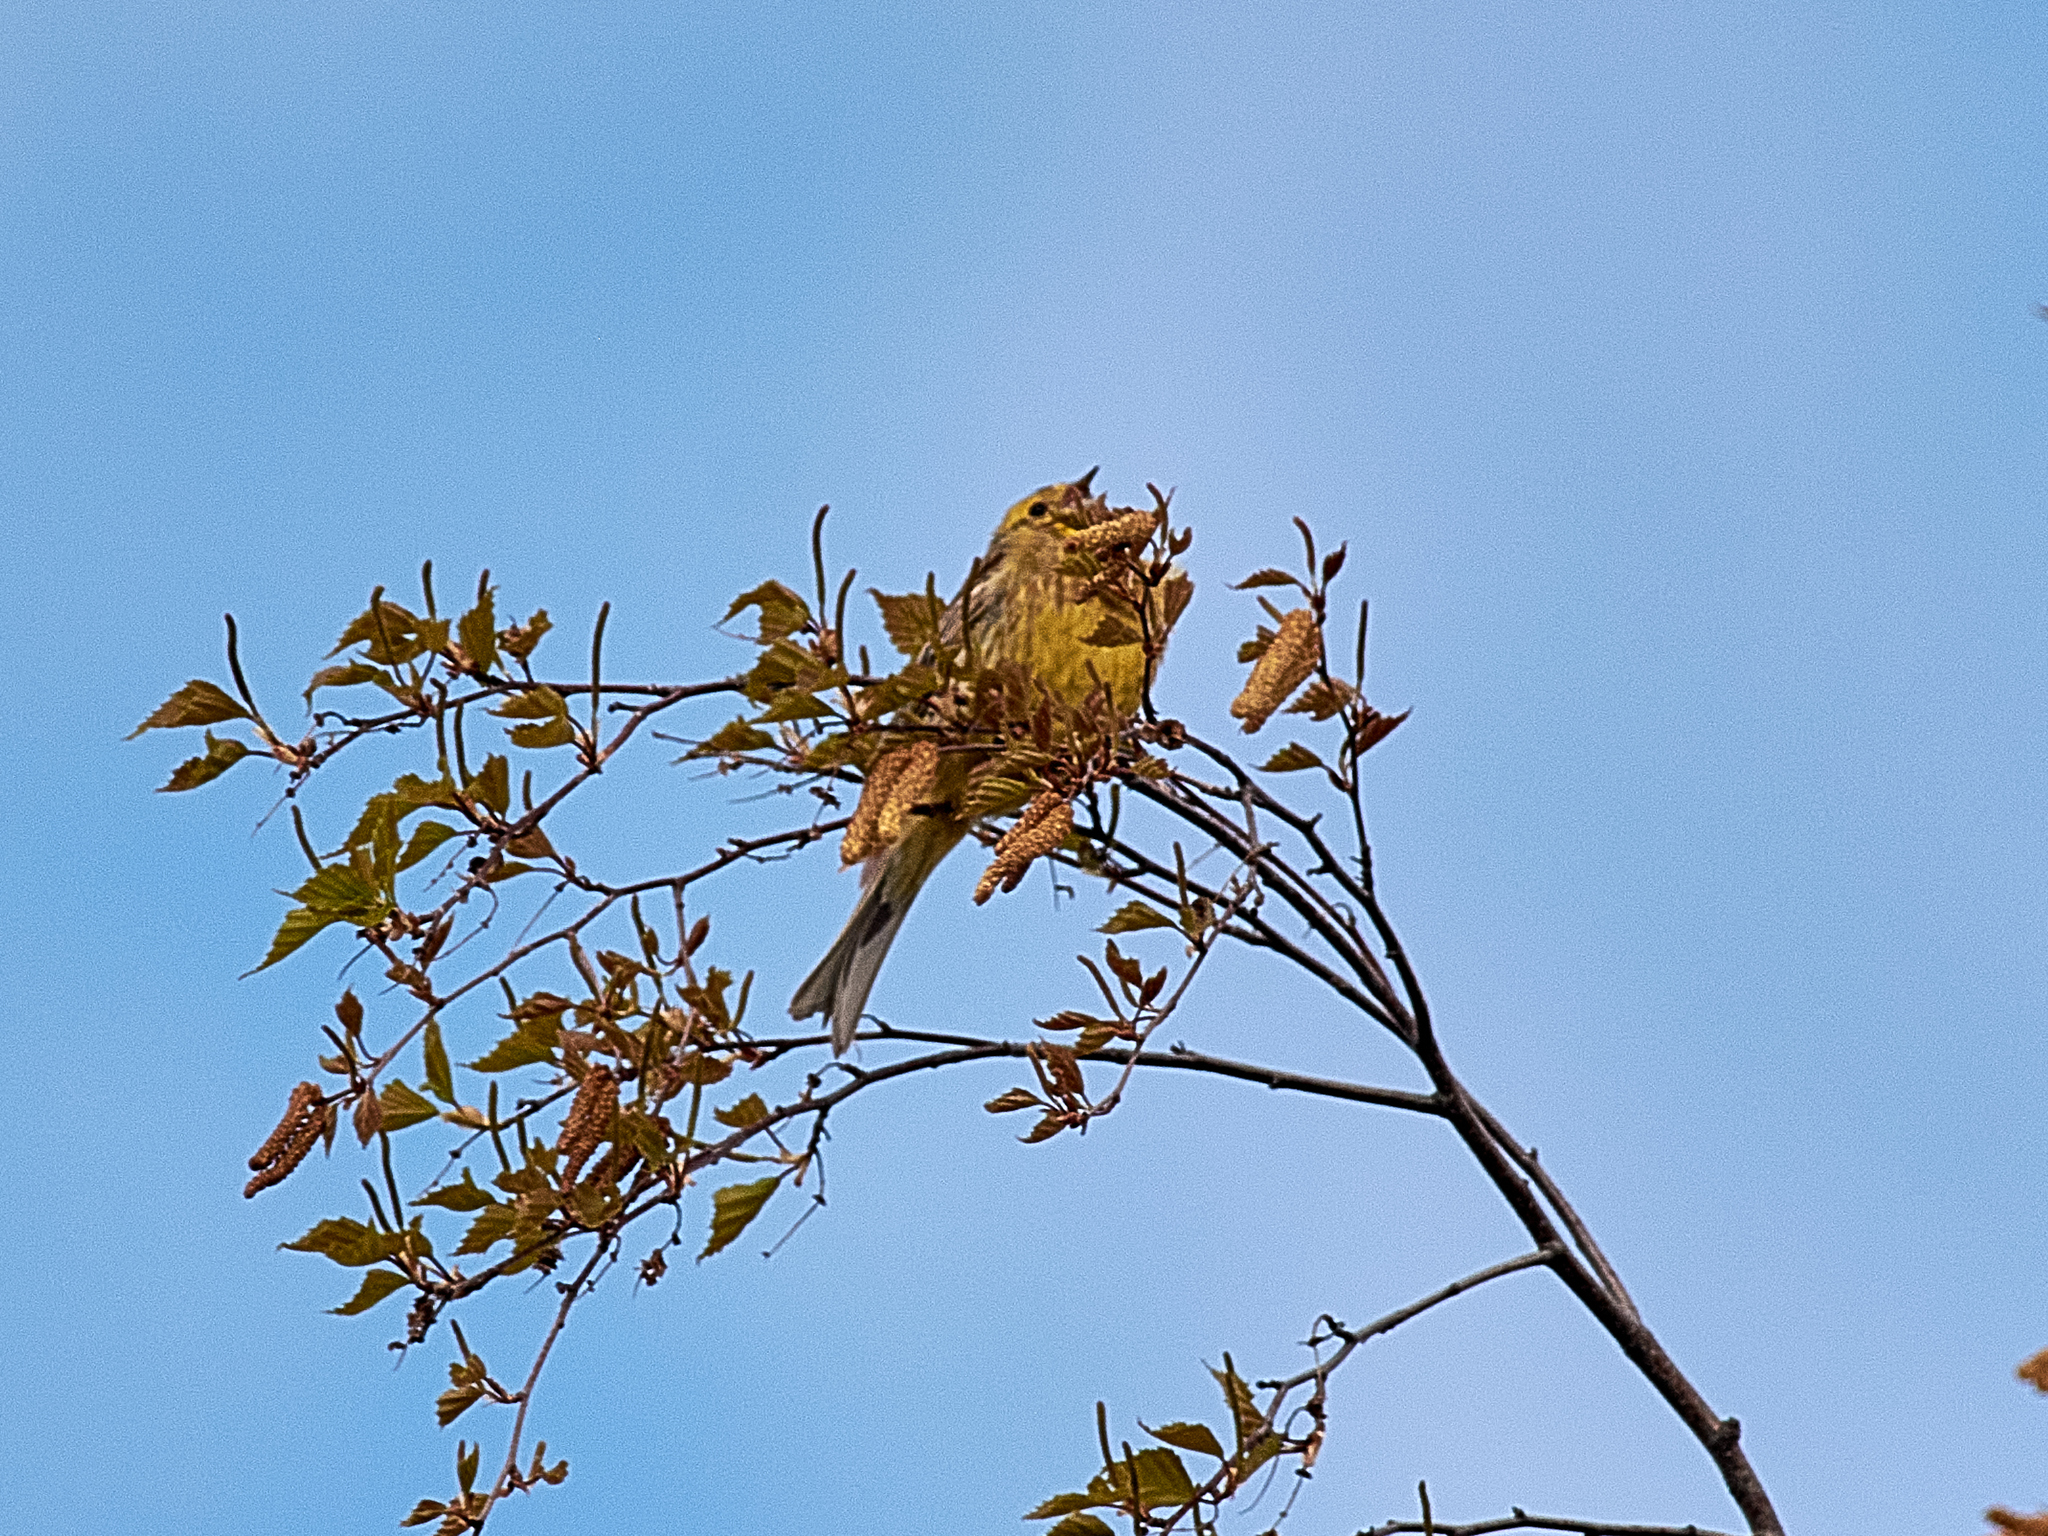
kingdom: Animalia
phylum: Chordata
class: Aves
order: Passeriformes
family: Emberizidae
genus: Emberiza
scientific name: Emberiza citrinella
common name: Yellowhammer
